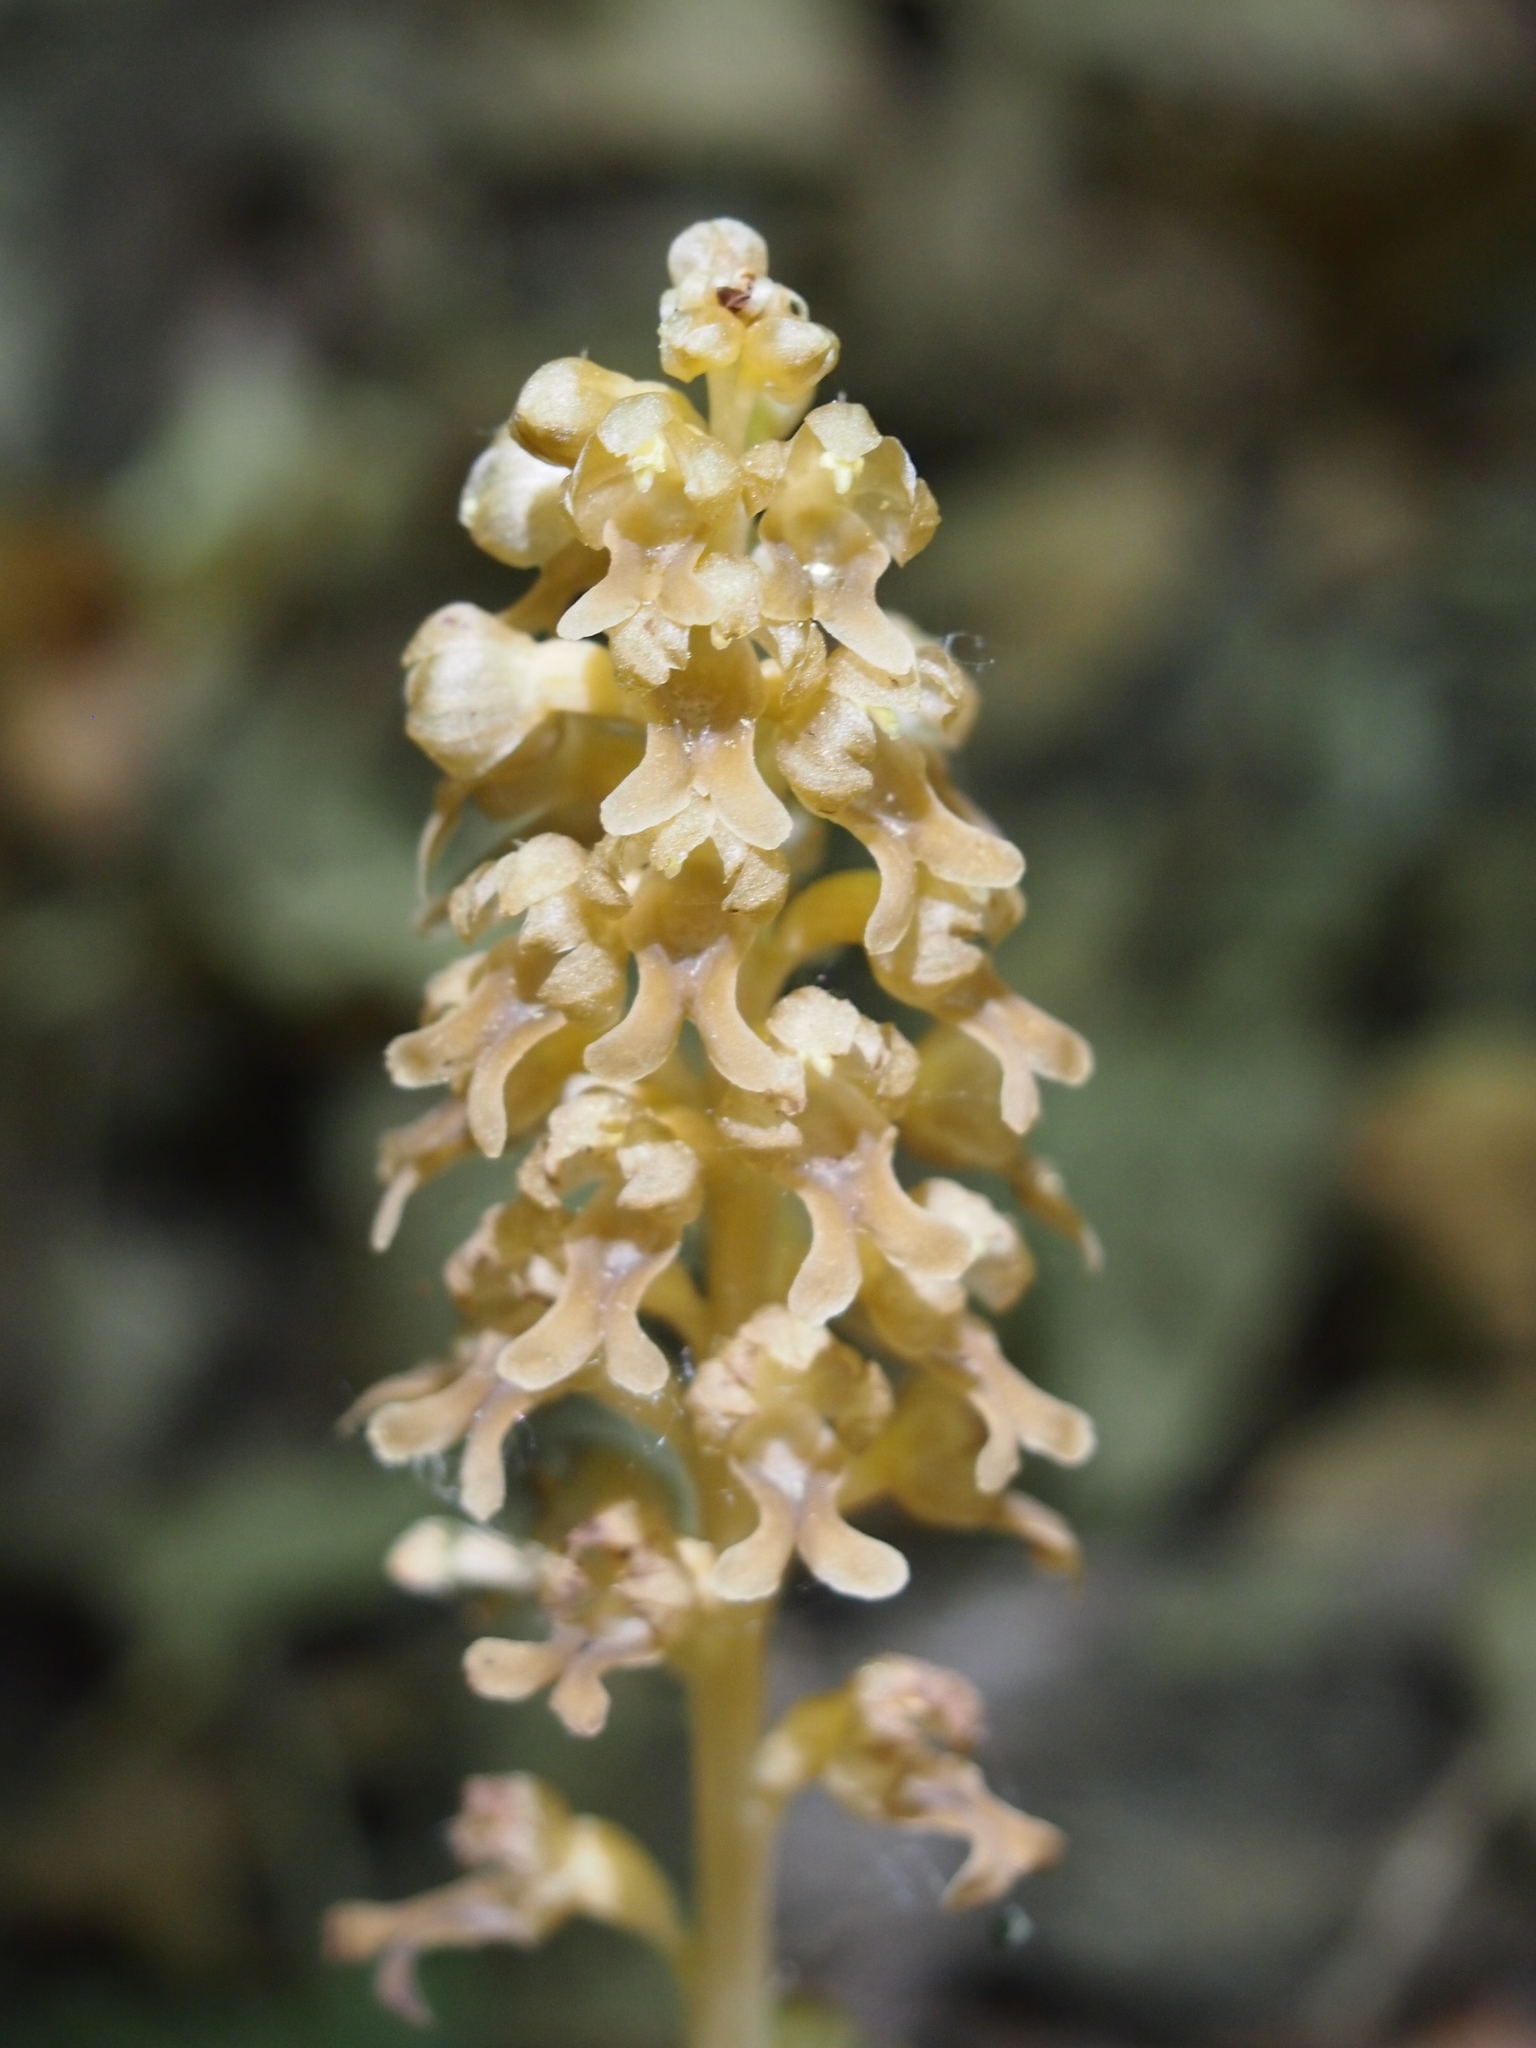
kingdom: Plantae
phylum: Tracheophyta
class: Liliopsida
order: Asparagales
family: Orchidaceae
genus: Neottia
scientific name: Neottia nidus-avis
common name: Bird's-nest orchid
